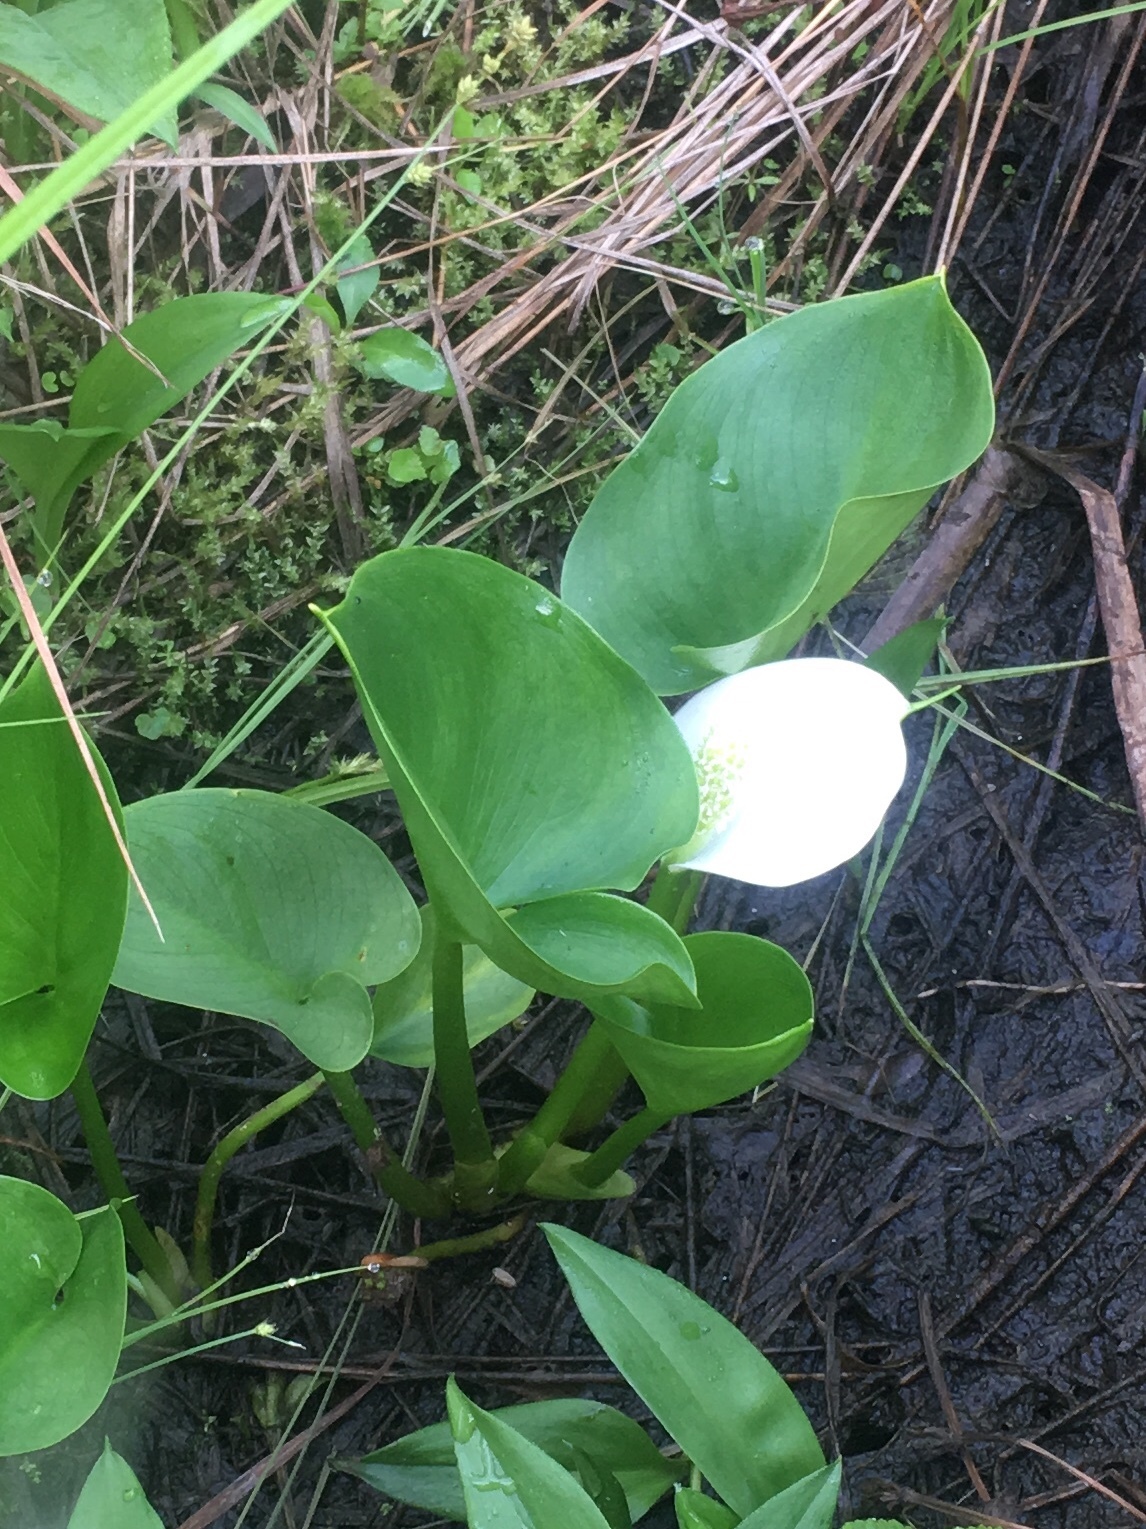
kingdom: Plantae
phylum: Tracheophyta
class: Liliopsida
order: Alismatales
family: Araceae
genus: Calla
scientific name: Calla palustris
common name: Bog arum
